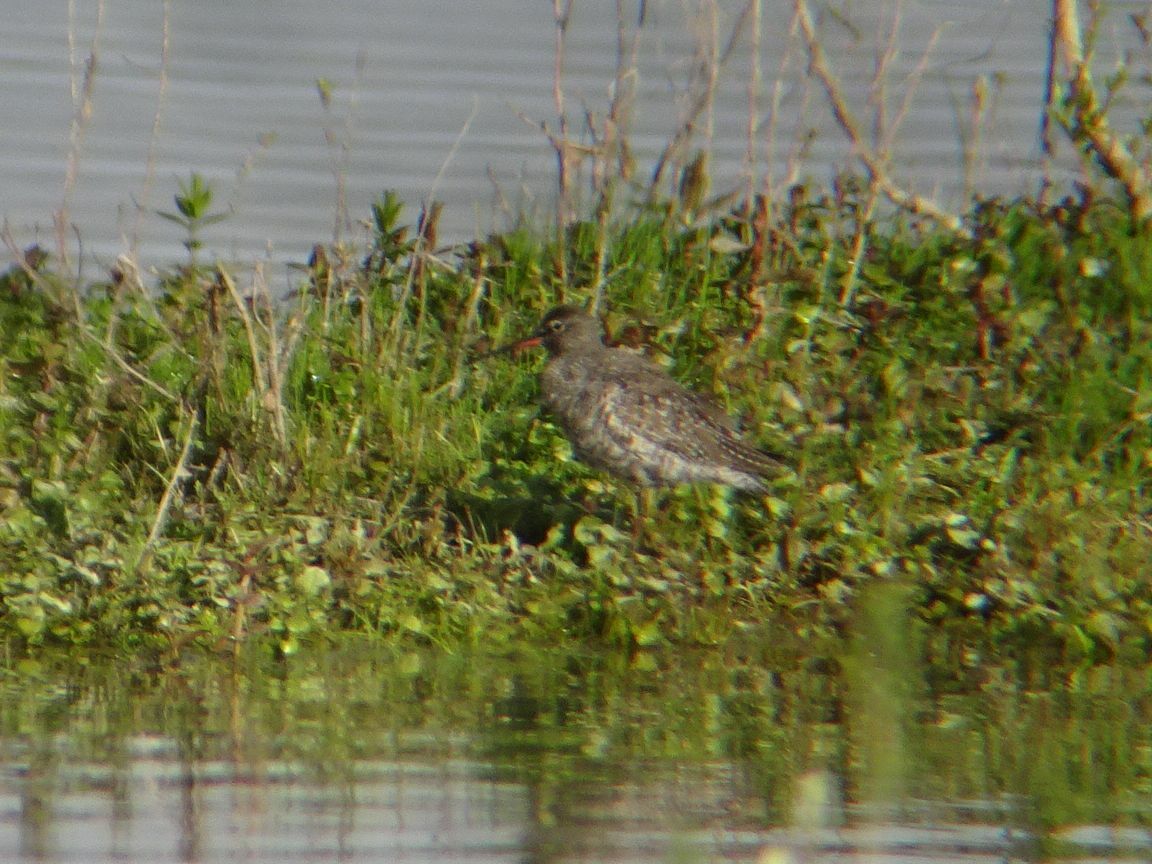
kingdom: Animalia
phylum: Chordata
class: Aves
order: Charadriiformes
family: Scolopacidae
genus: Tringa
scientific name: Tringa erythropus
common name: Spotted redshank
